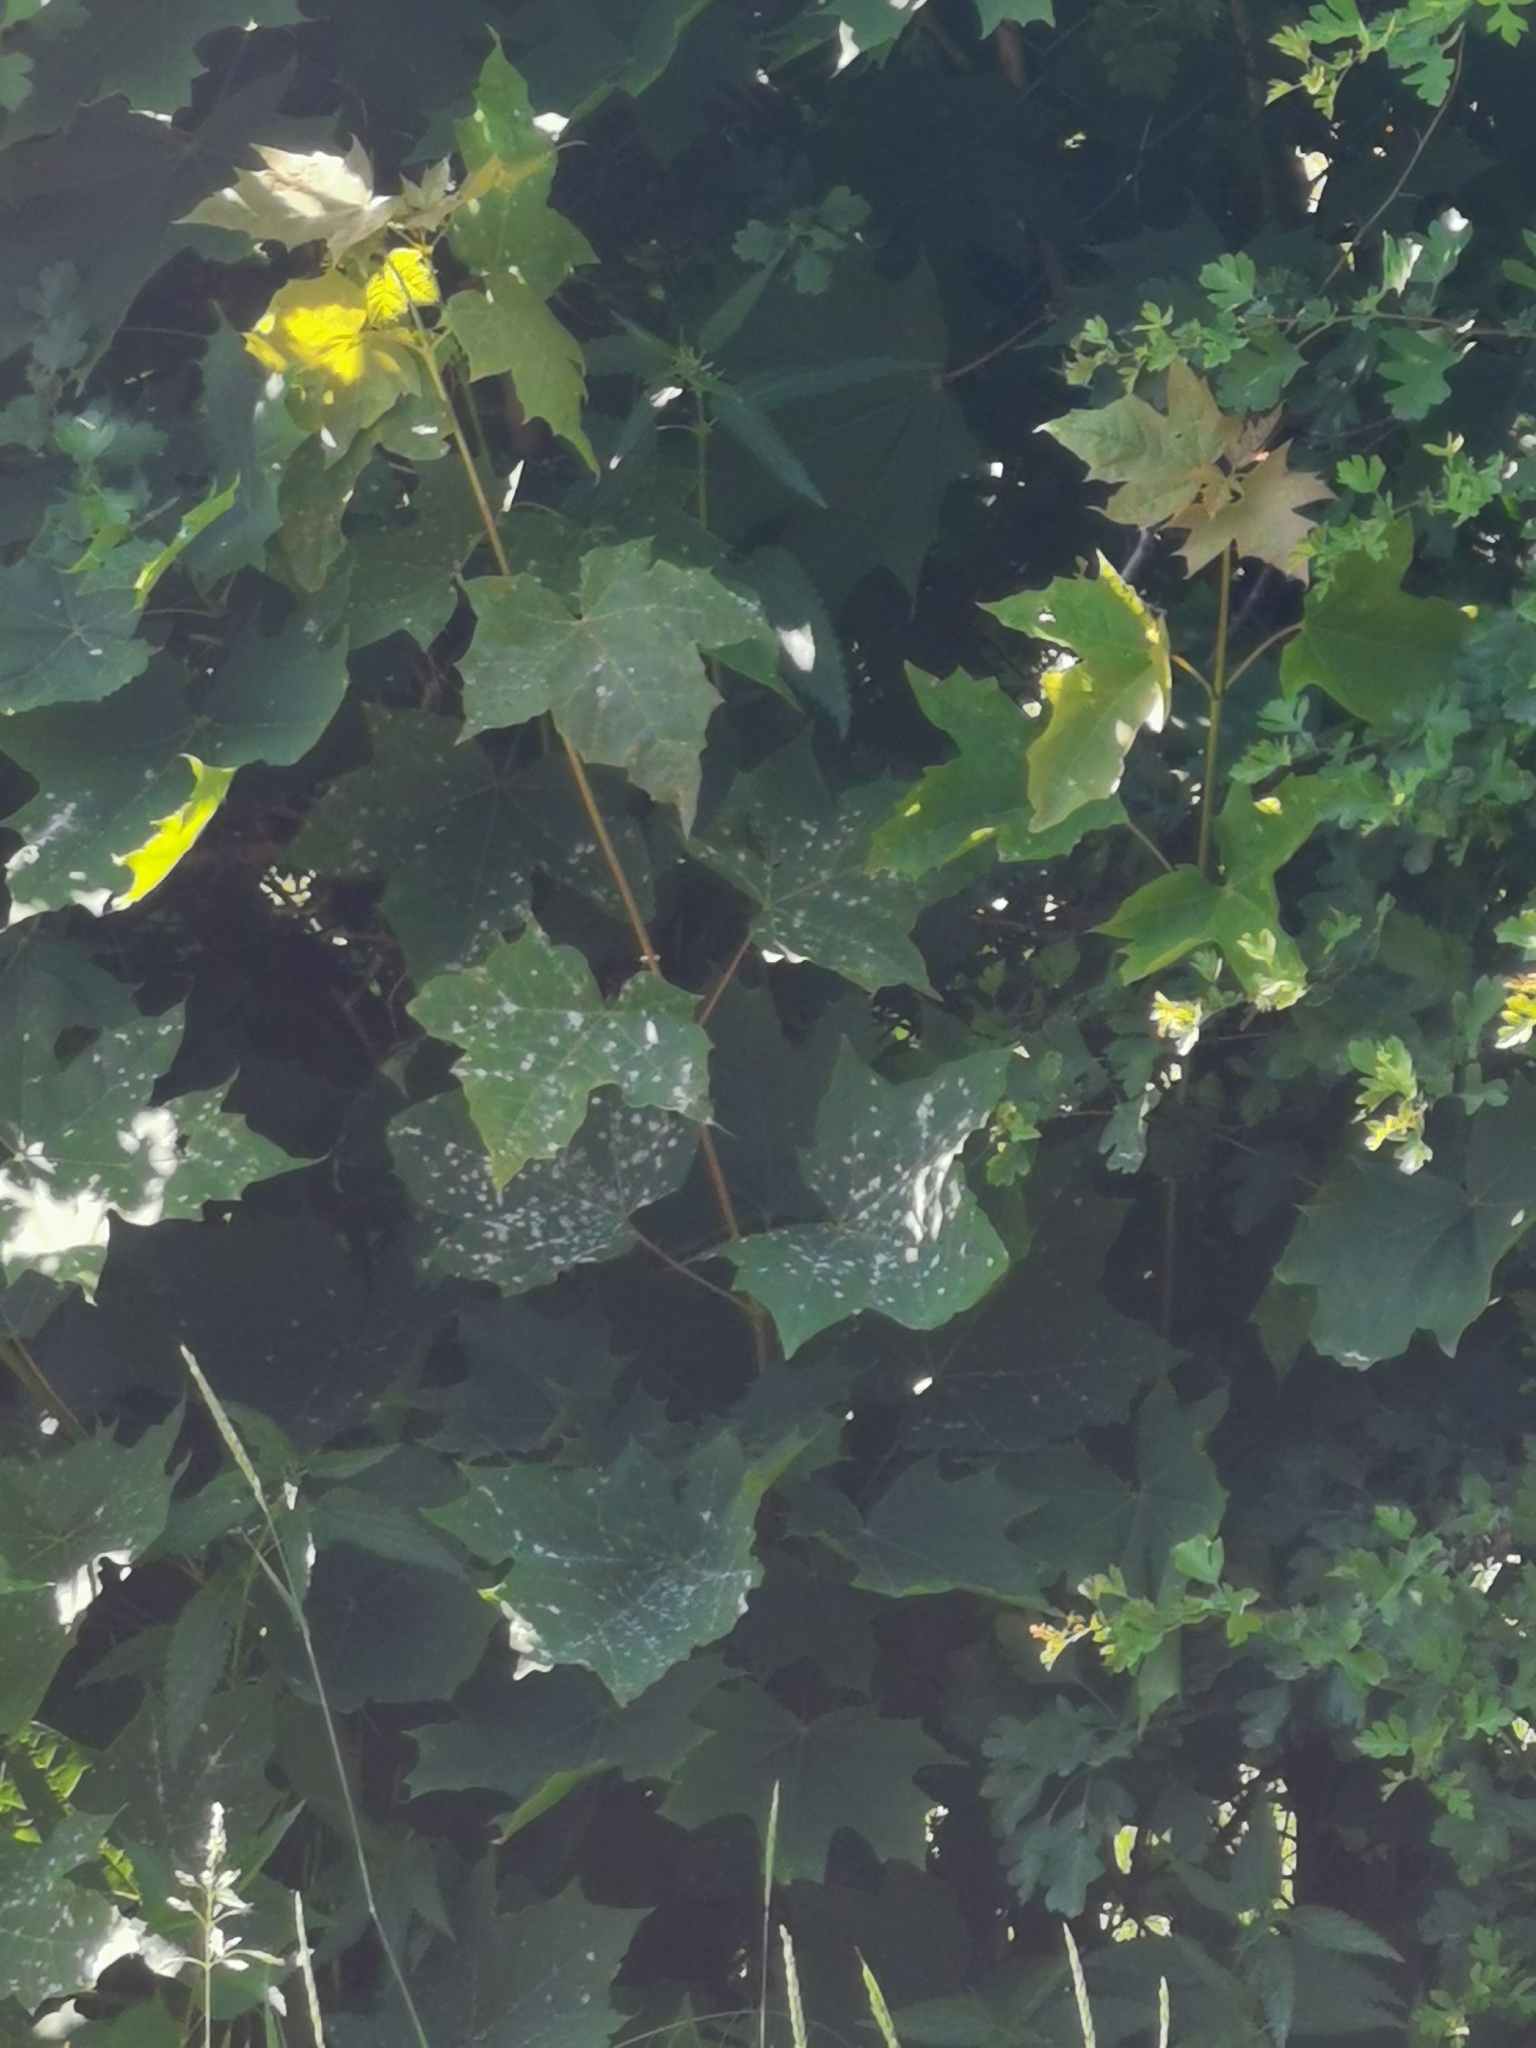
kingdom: Plantae
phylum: Tracheophyta
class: Magnoliopsida
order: Sapindales
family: Sapindaceae
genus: Acer
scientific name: Acer platanoides
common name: Norway maple
